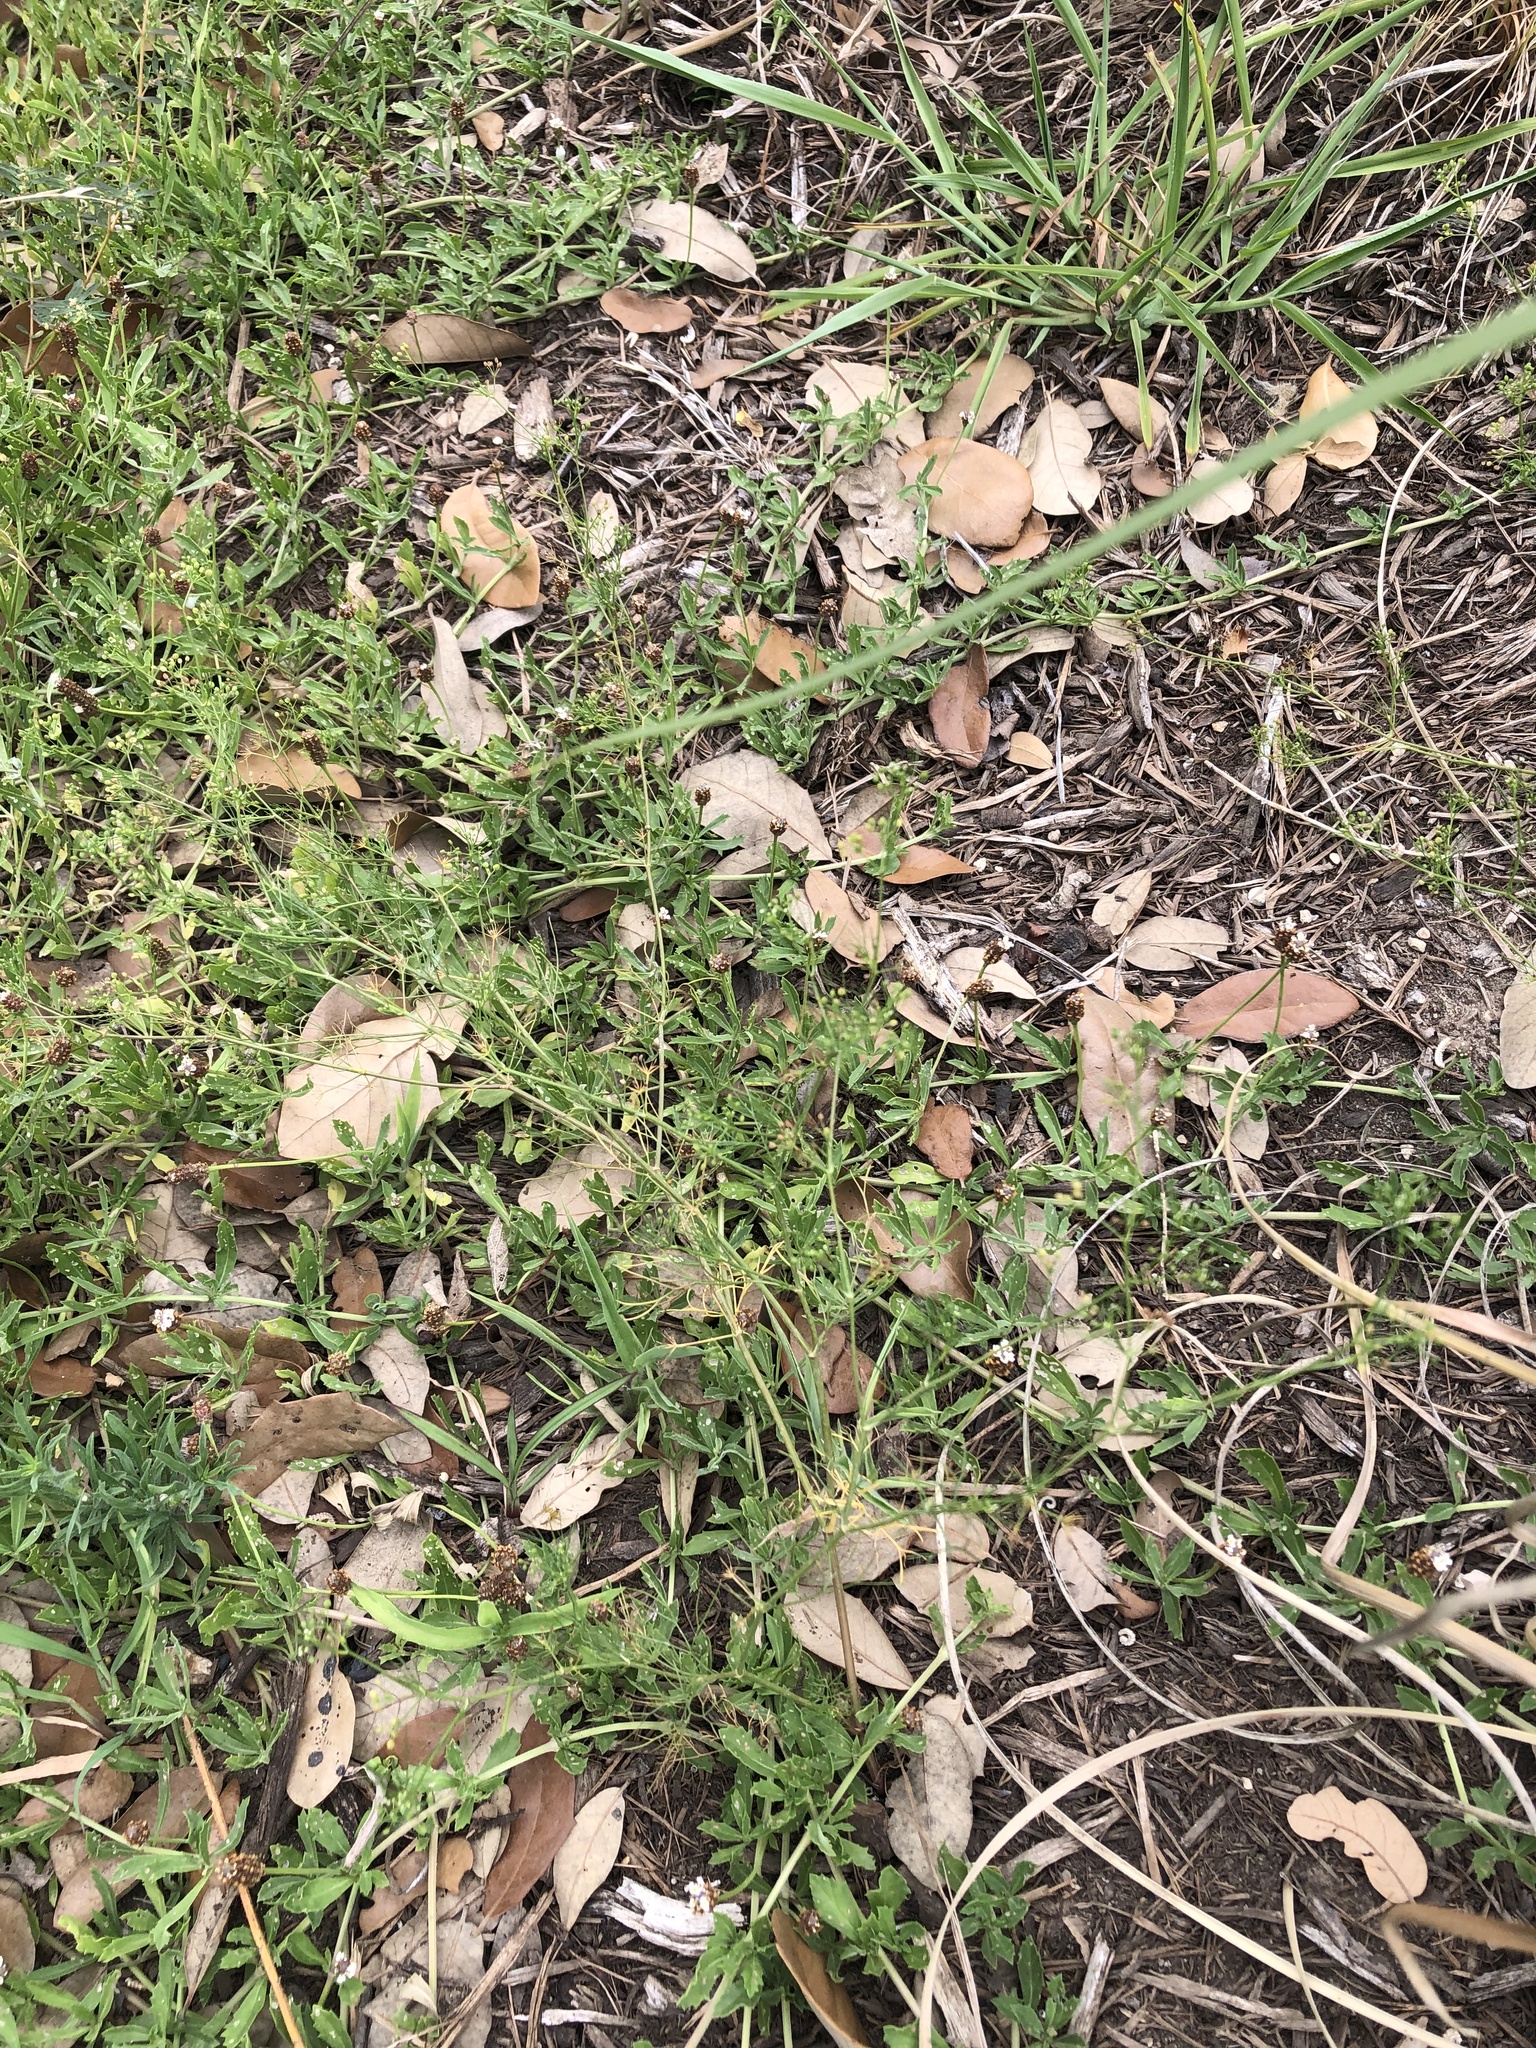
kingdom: Plantae
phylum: Tracheophyta
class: Magnoliopsida
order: Apiales
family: Apiaceae
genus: Cyclospermum
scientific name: Cyclospermum leptophyllum
